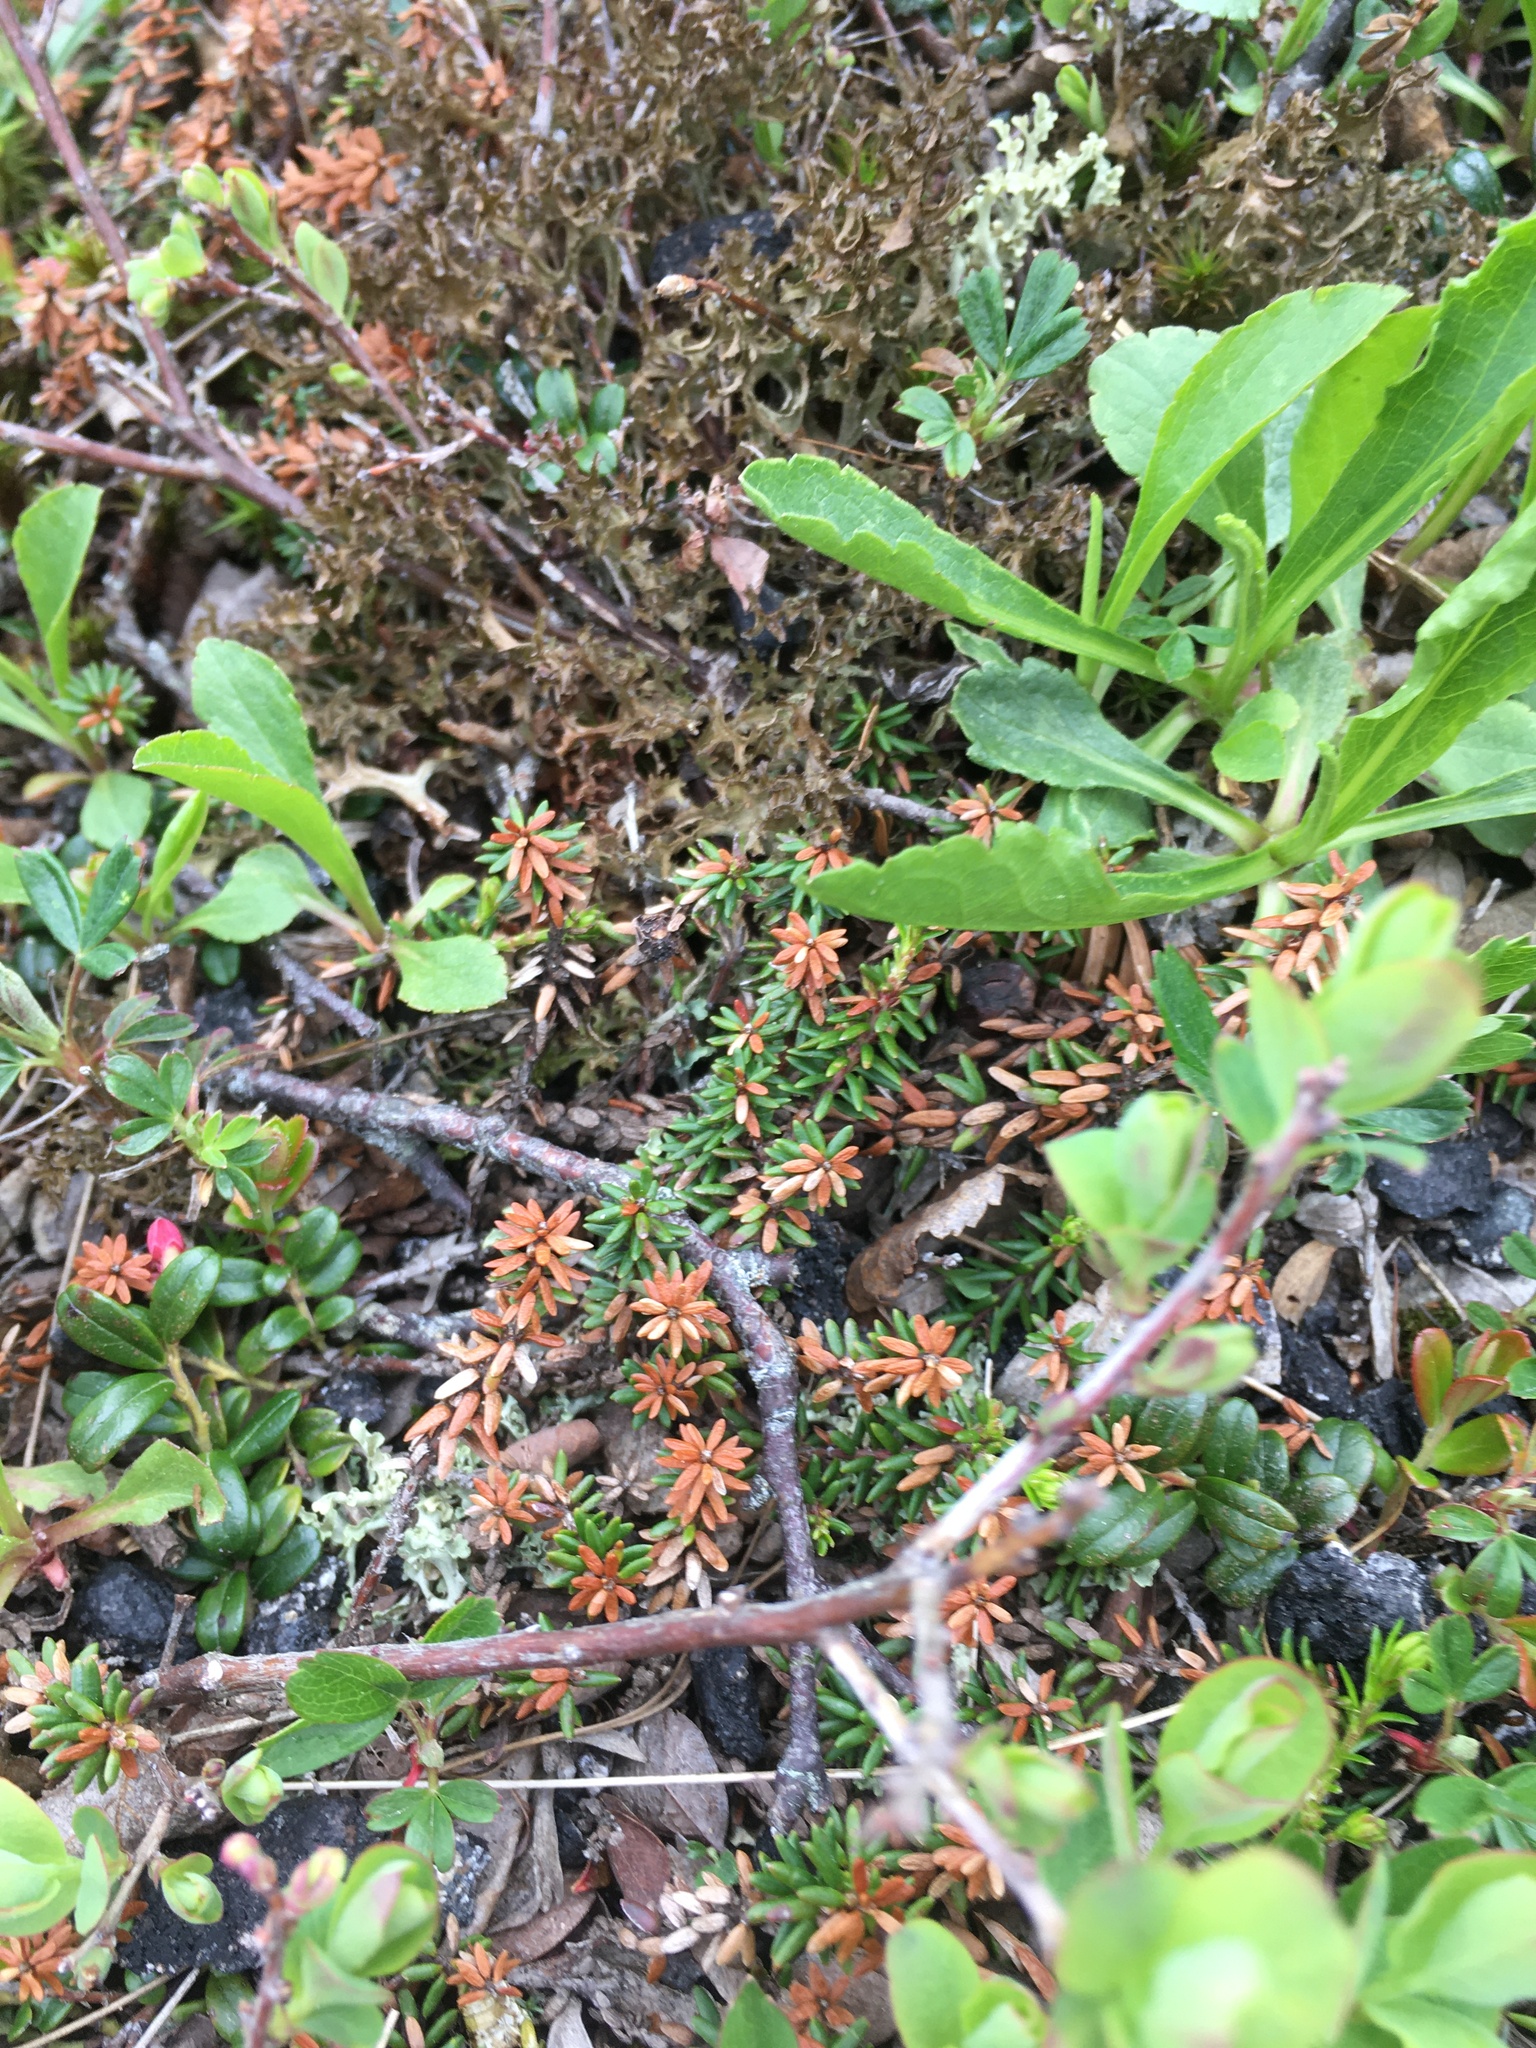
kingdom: Plantae
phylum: Tracheophyta
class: Magnoliopsida
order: Ericales
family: Ericaceae
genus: Empetrum
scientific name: Empetrum nigrum
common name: Black crowberry
